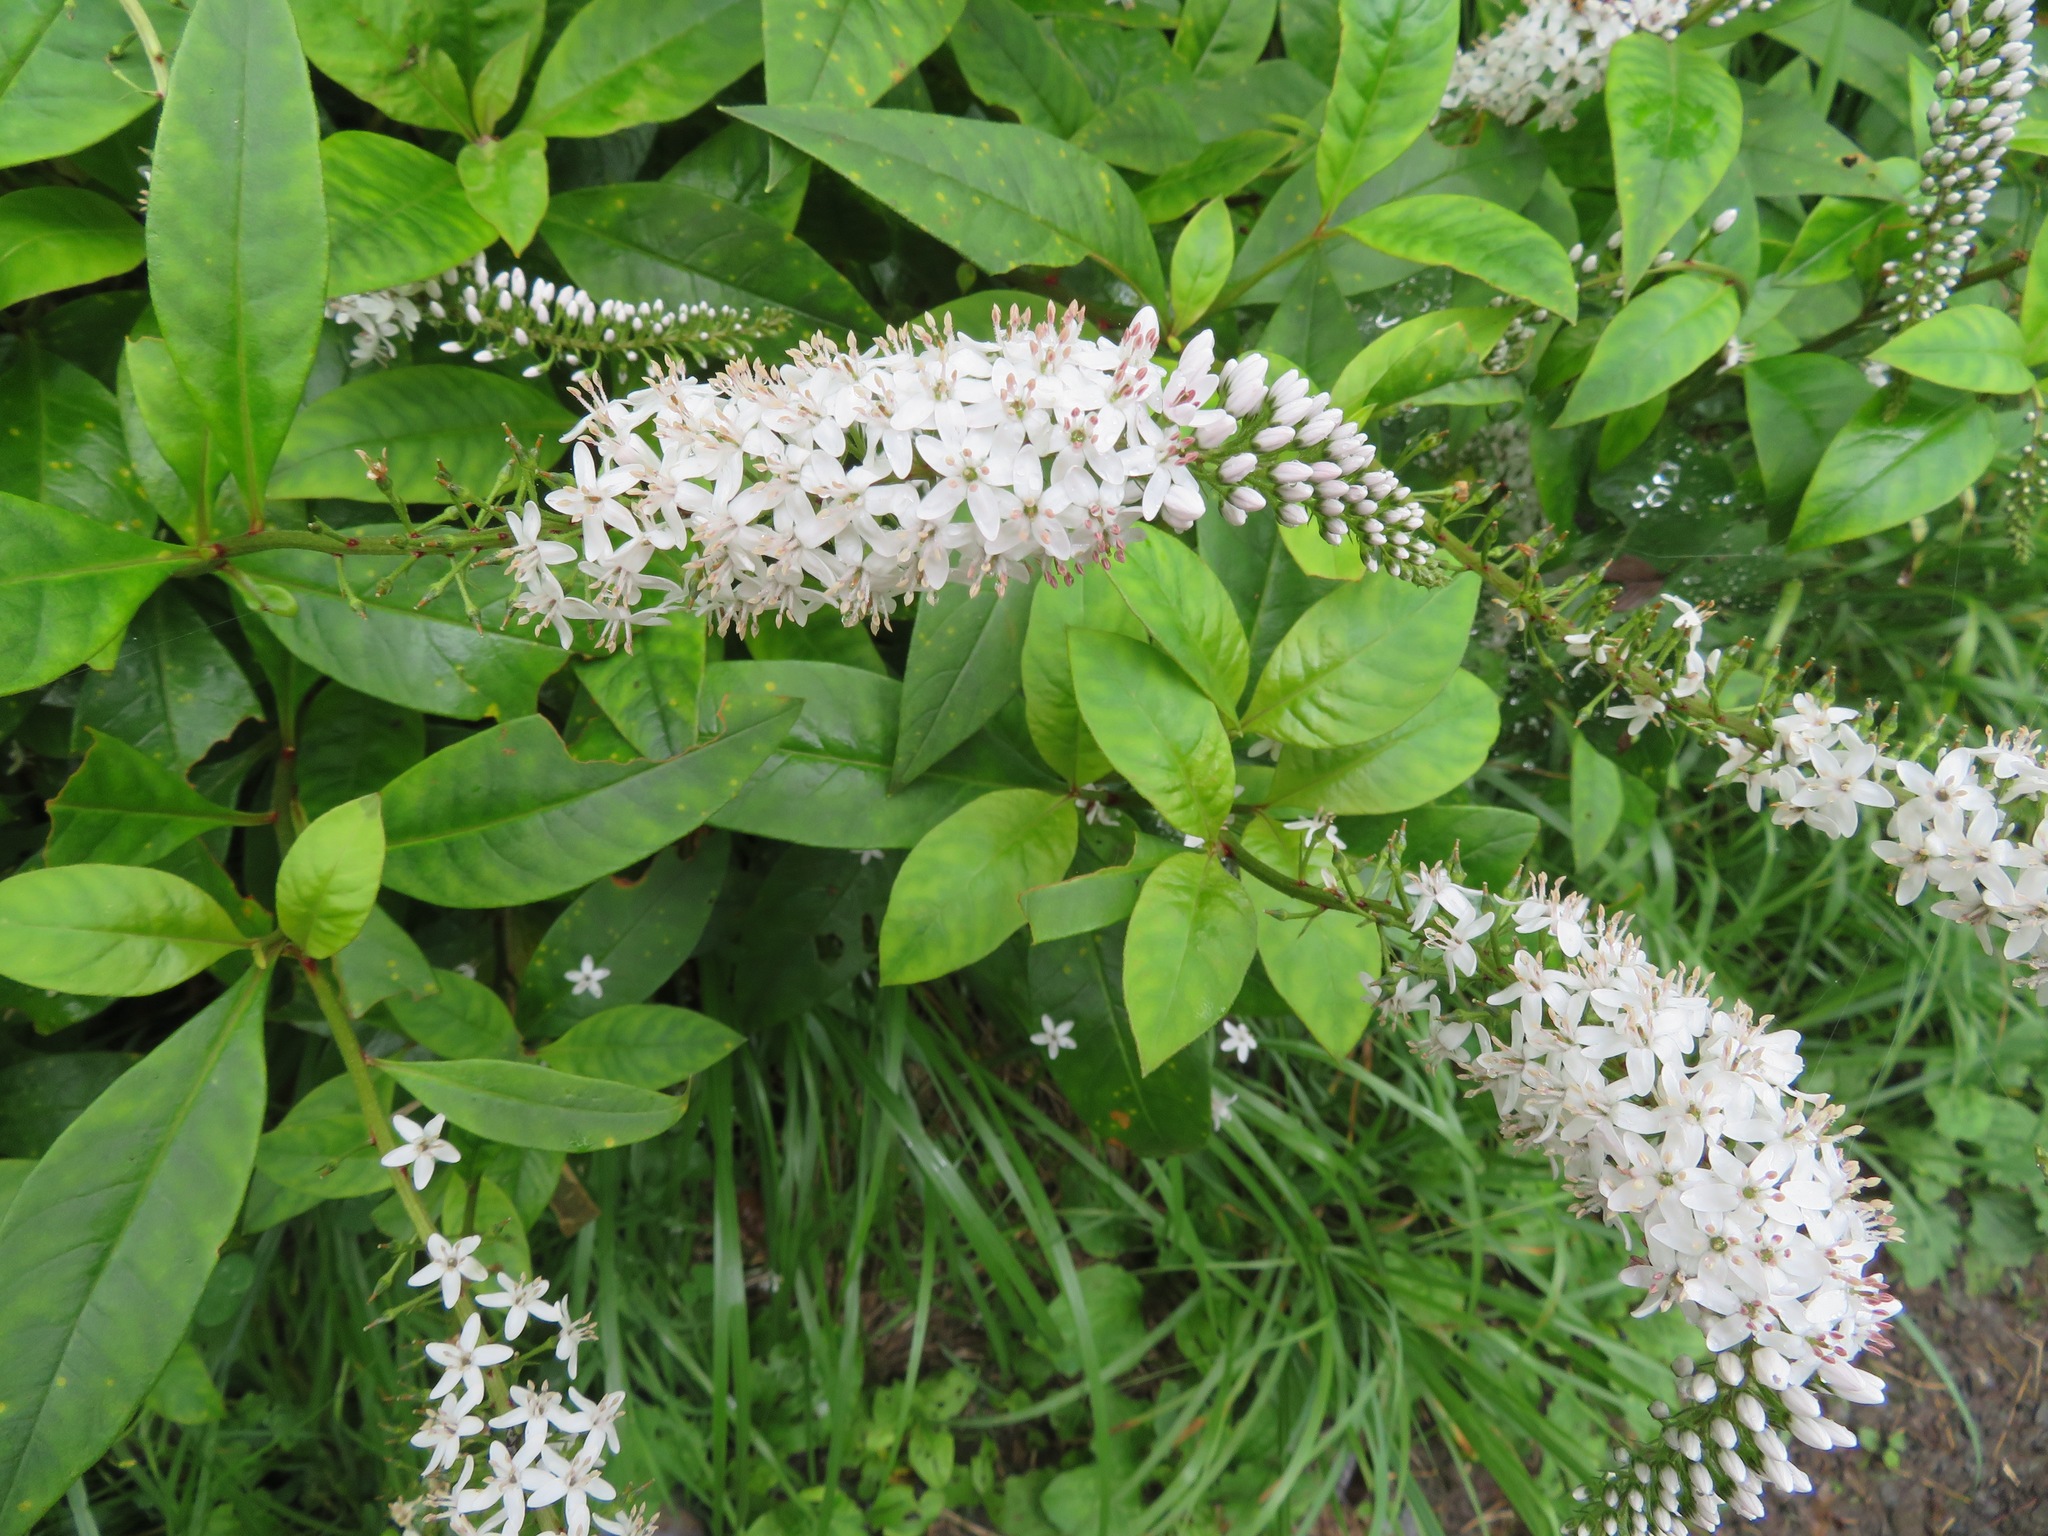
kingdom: Plantae
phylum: Tracheophyta
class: Magnoliopsida
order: Ericales
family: Primulaceae
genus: Lysimachia
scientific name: Lysimachia clethroides
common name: Gooseneck loosestrife
